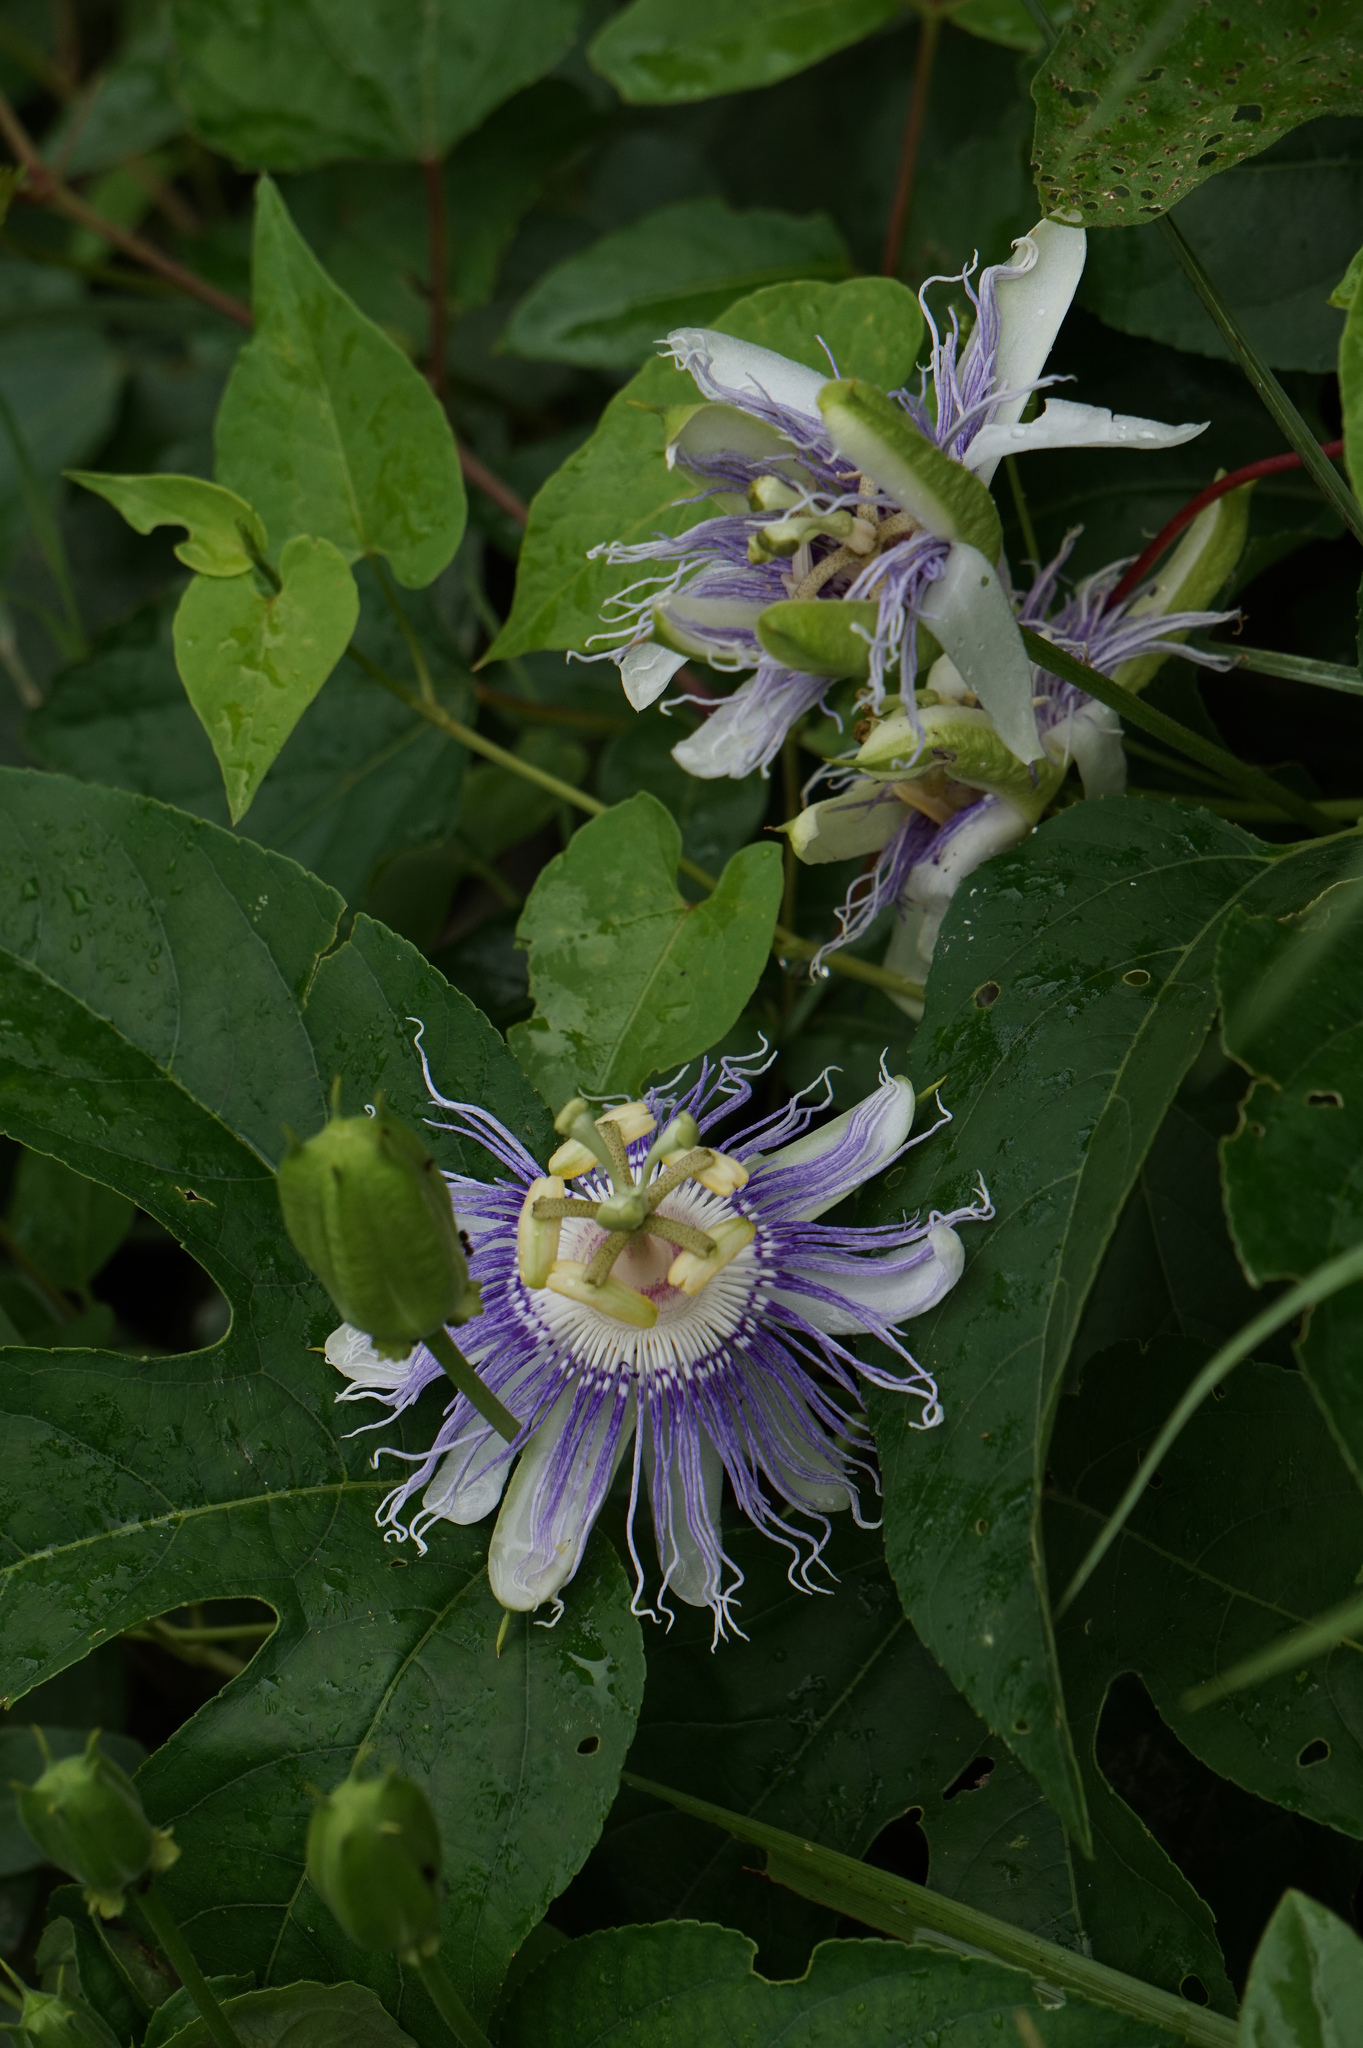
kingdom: Plantae
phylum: Tracheophyta
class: Magnoliopsida
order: Malpighiales
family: Passifloraceae
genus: Passiflora
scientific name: Passiflora incarnata
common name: Apricot-vine
